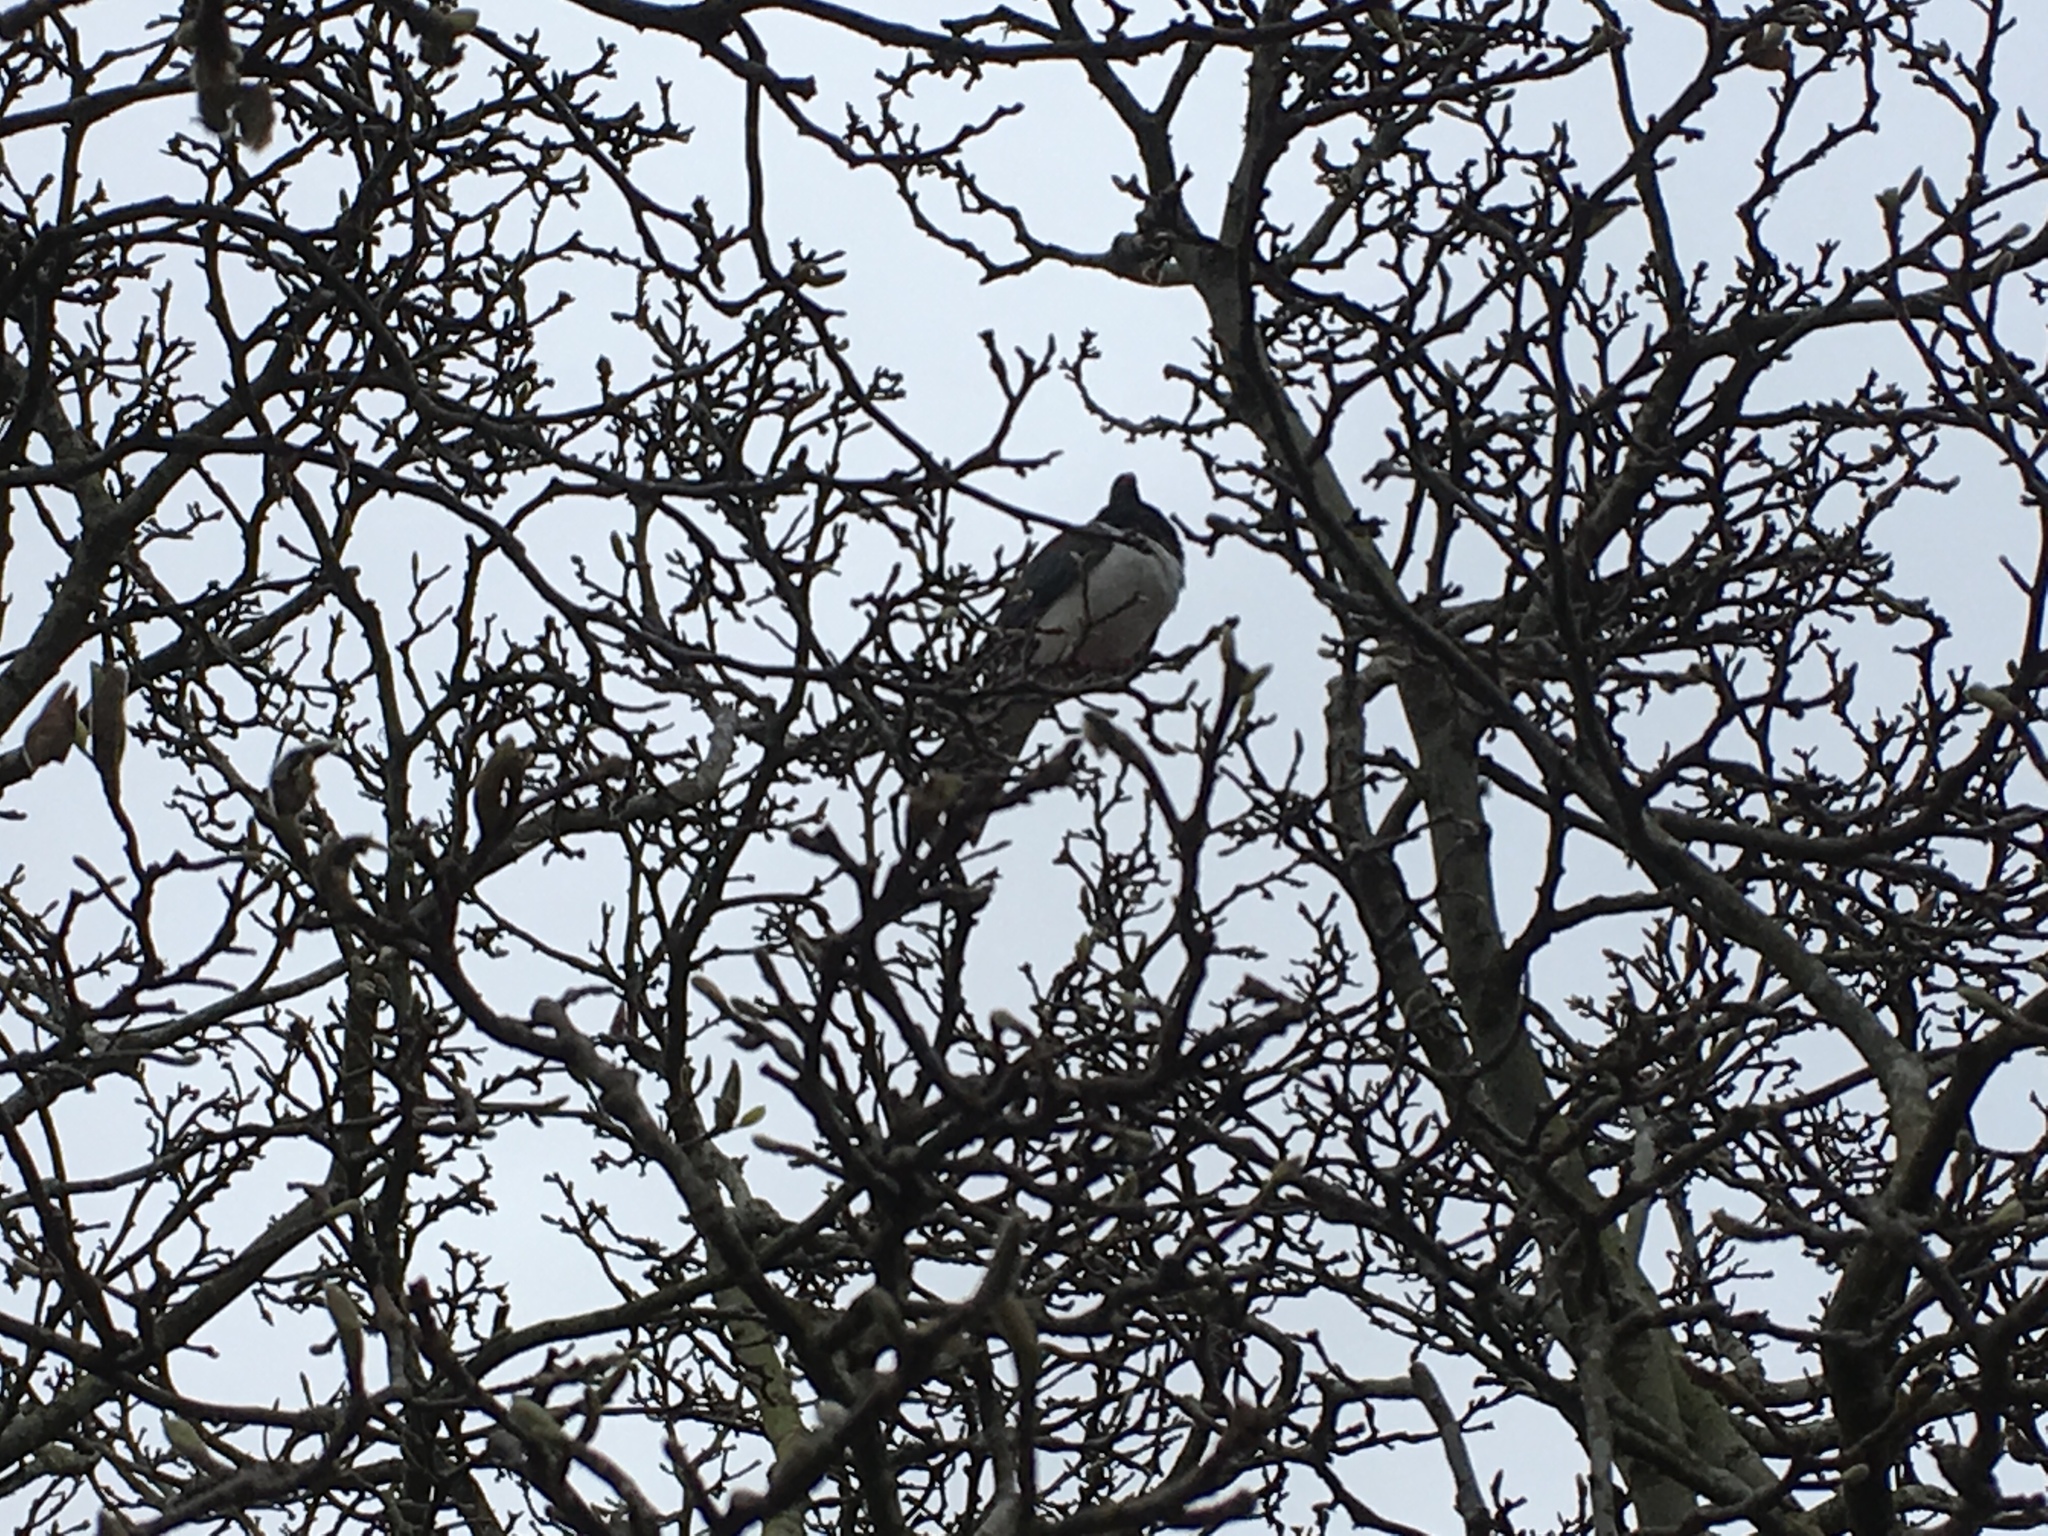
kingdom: Animalia
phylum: Chordata
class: Aves
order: Columbiformes
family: Columbidae
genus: Hemiphaga
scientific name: Hemiphaga novaeseelandiae
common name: New zealand pigeon
